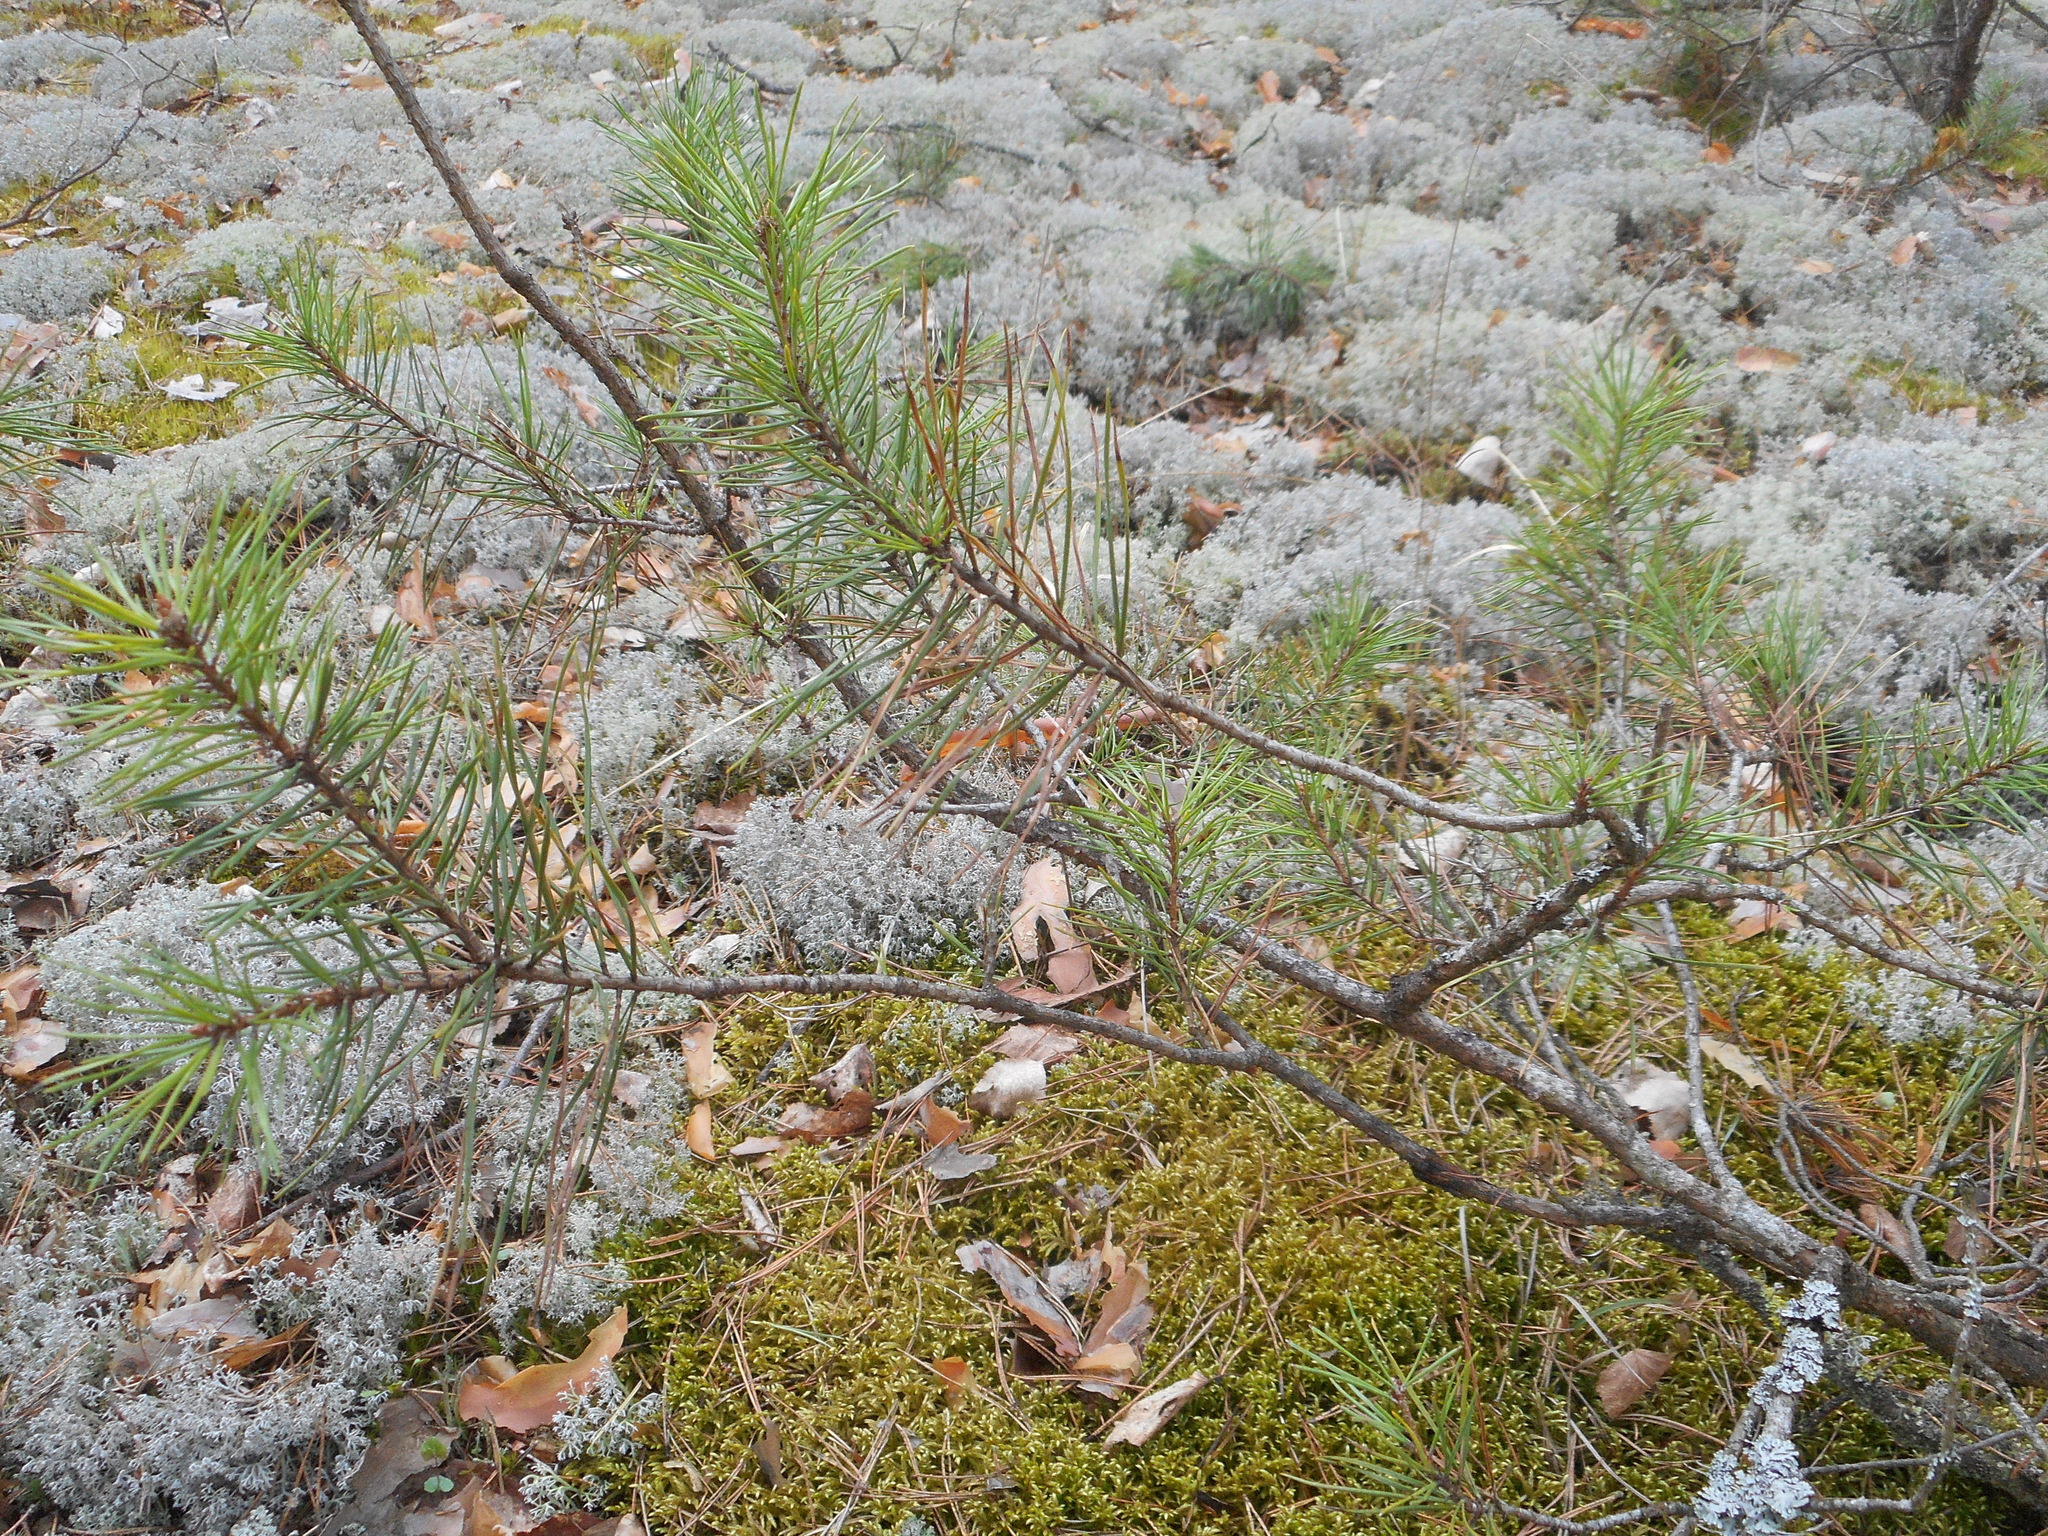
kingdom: Plantae
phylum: Tracheophyta
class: Pinopsida
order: Pinales
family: Pinaceae
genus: Pinus
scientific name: Pinus sylvestris
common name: Scots pine
